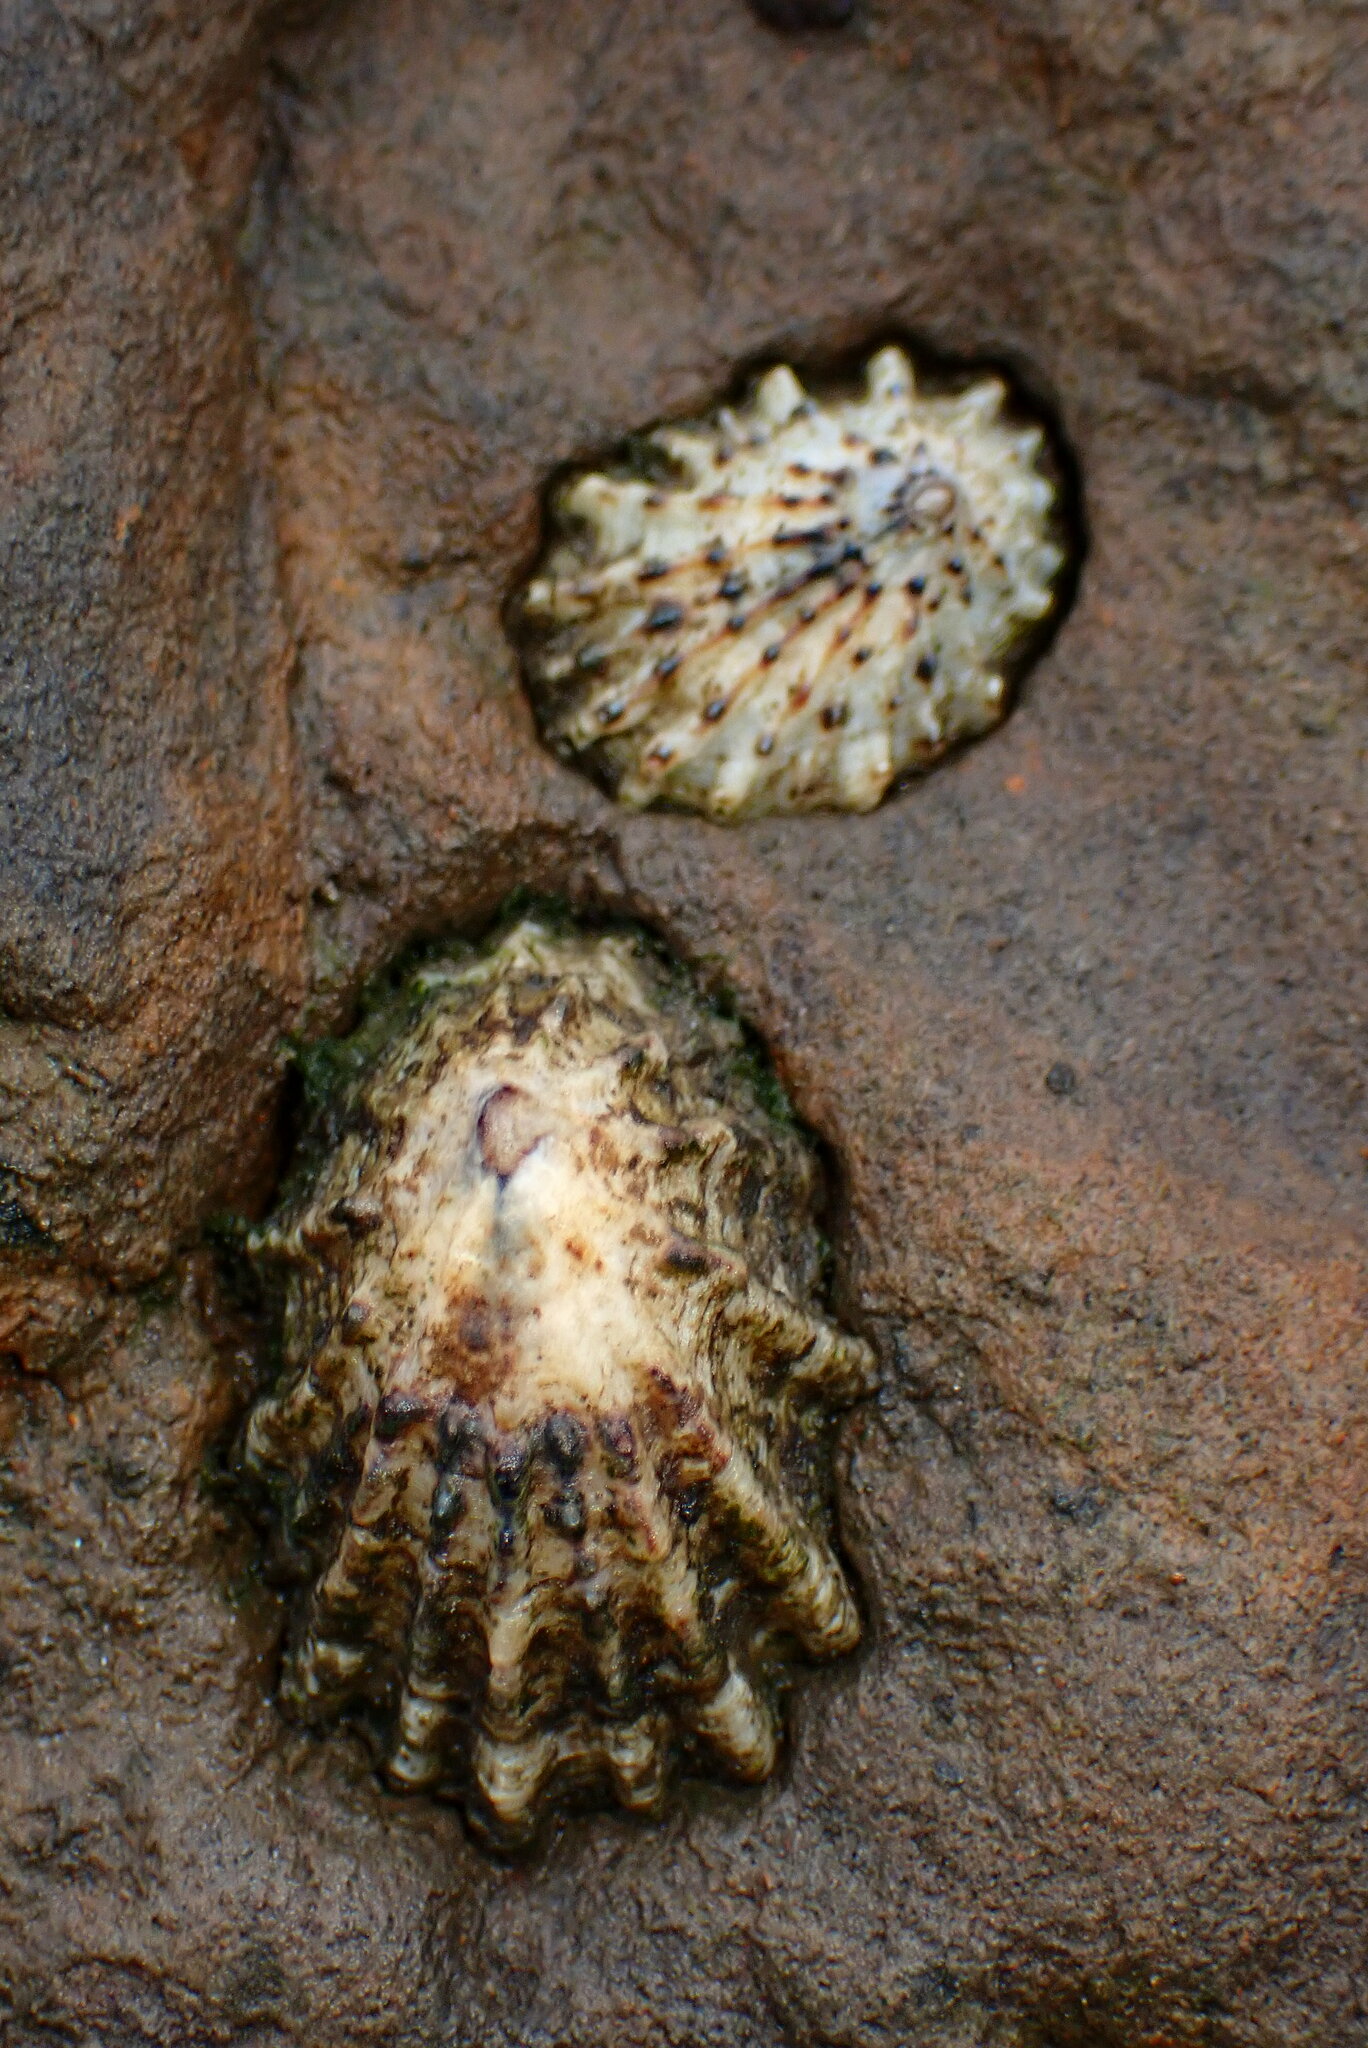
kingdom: Animalia
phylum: Mollusca
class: Gastropoda
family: Lottiidae
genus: Lottia
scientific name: Lottia scabra
